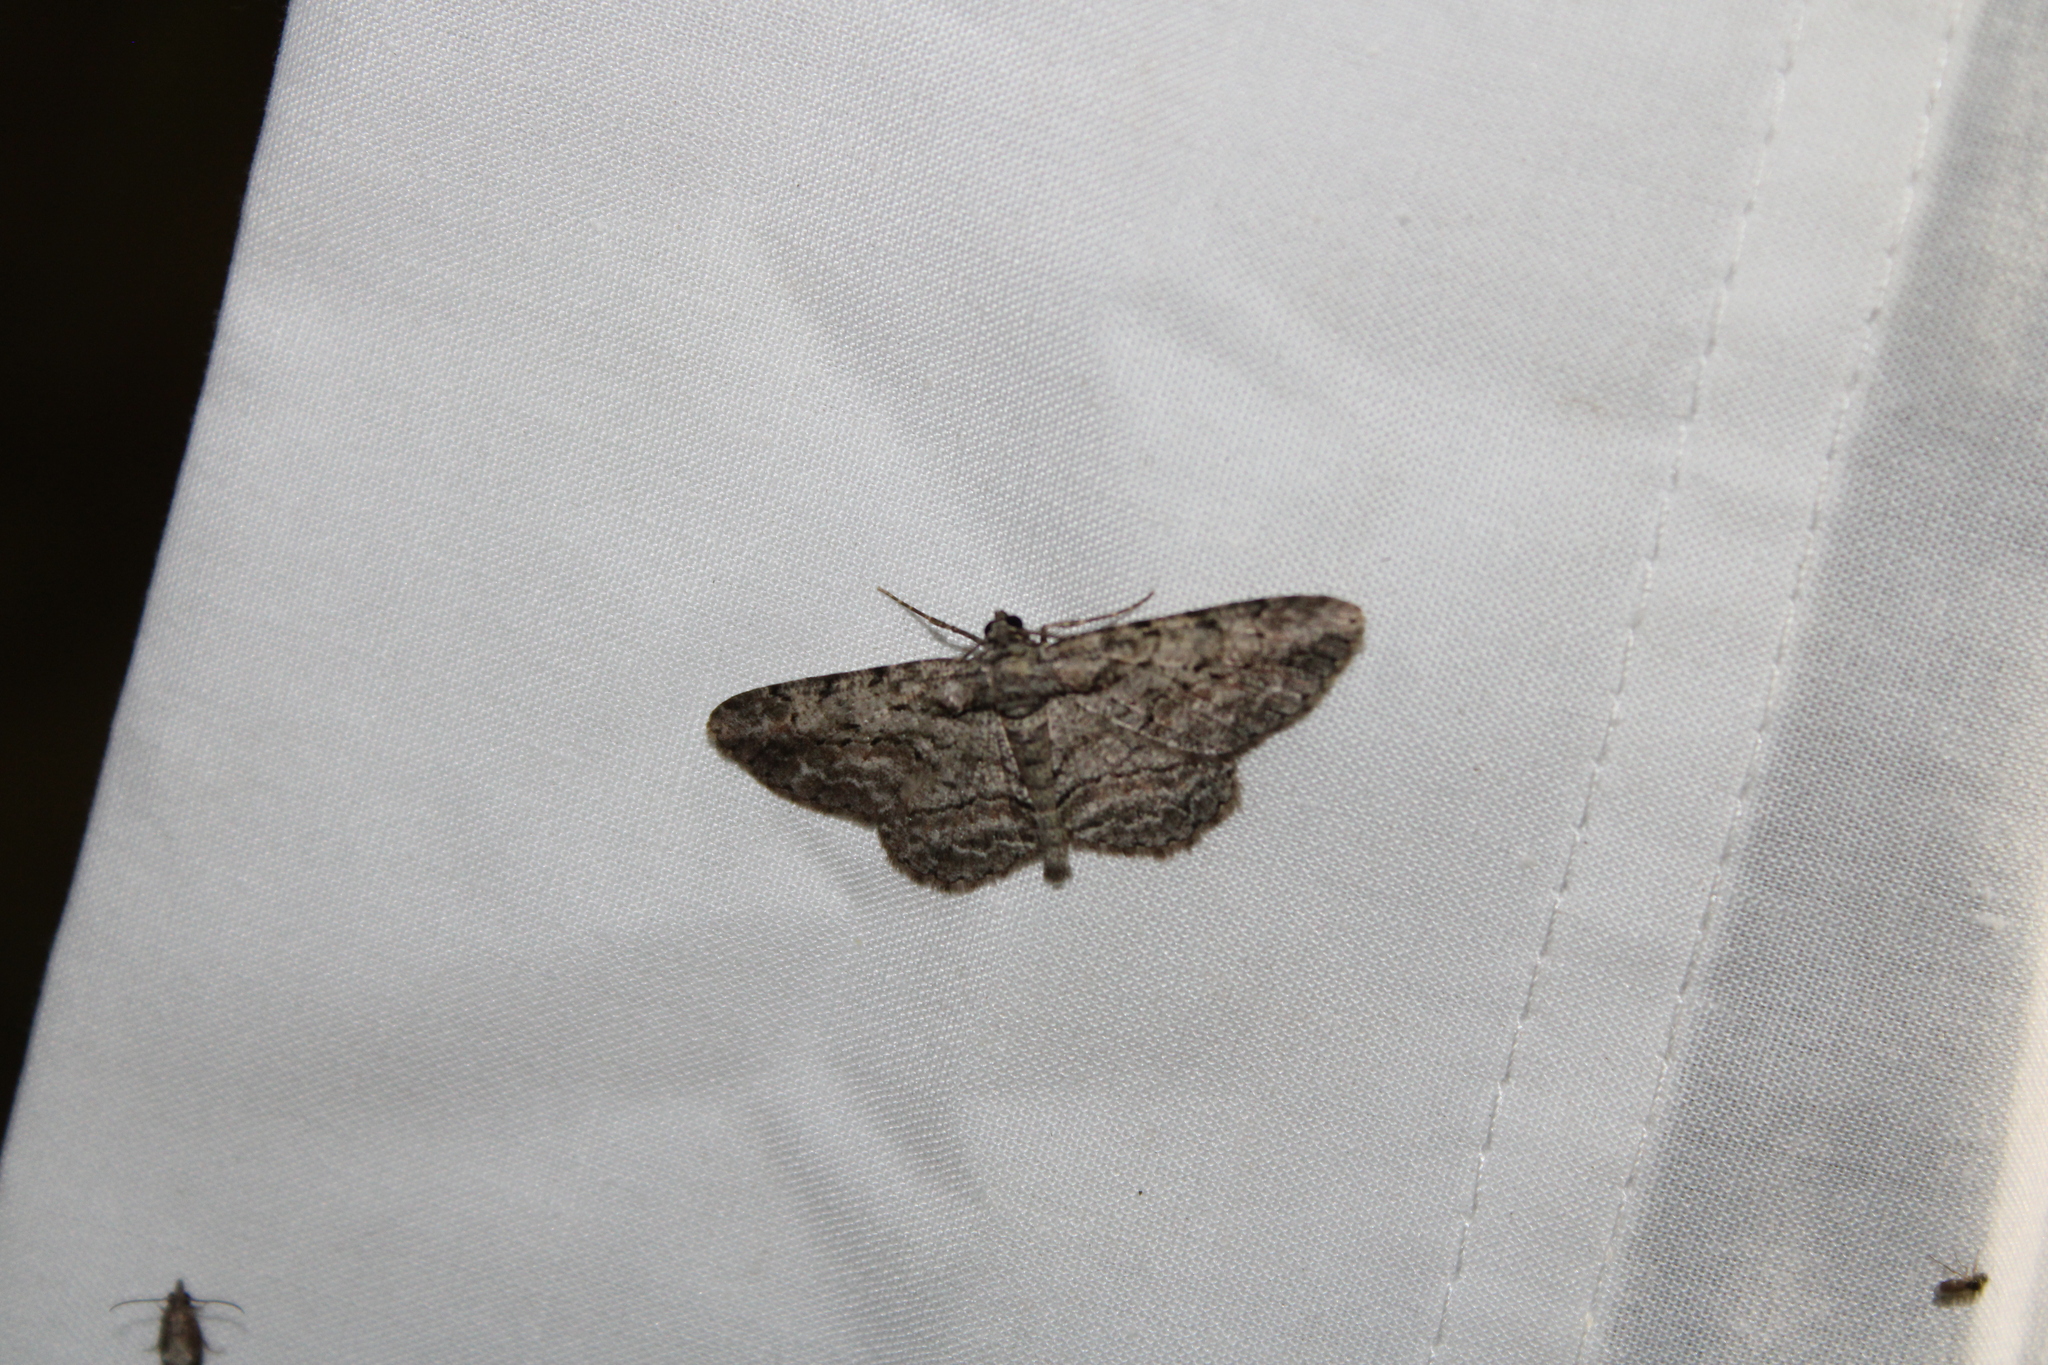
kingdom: Animalia
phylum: Arthropoda
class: Insecta
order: Lepidoptera
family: Geometridae
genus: Anavitrinella
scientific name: Anavitrinella pampinaria
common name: Common gray
